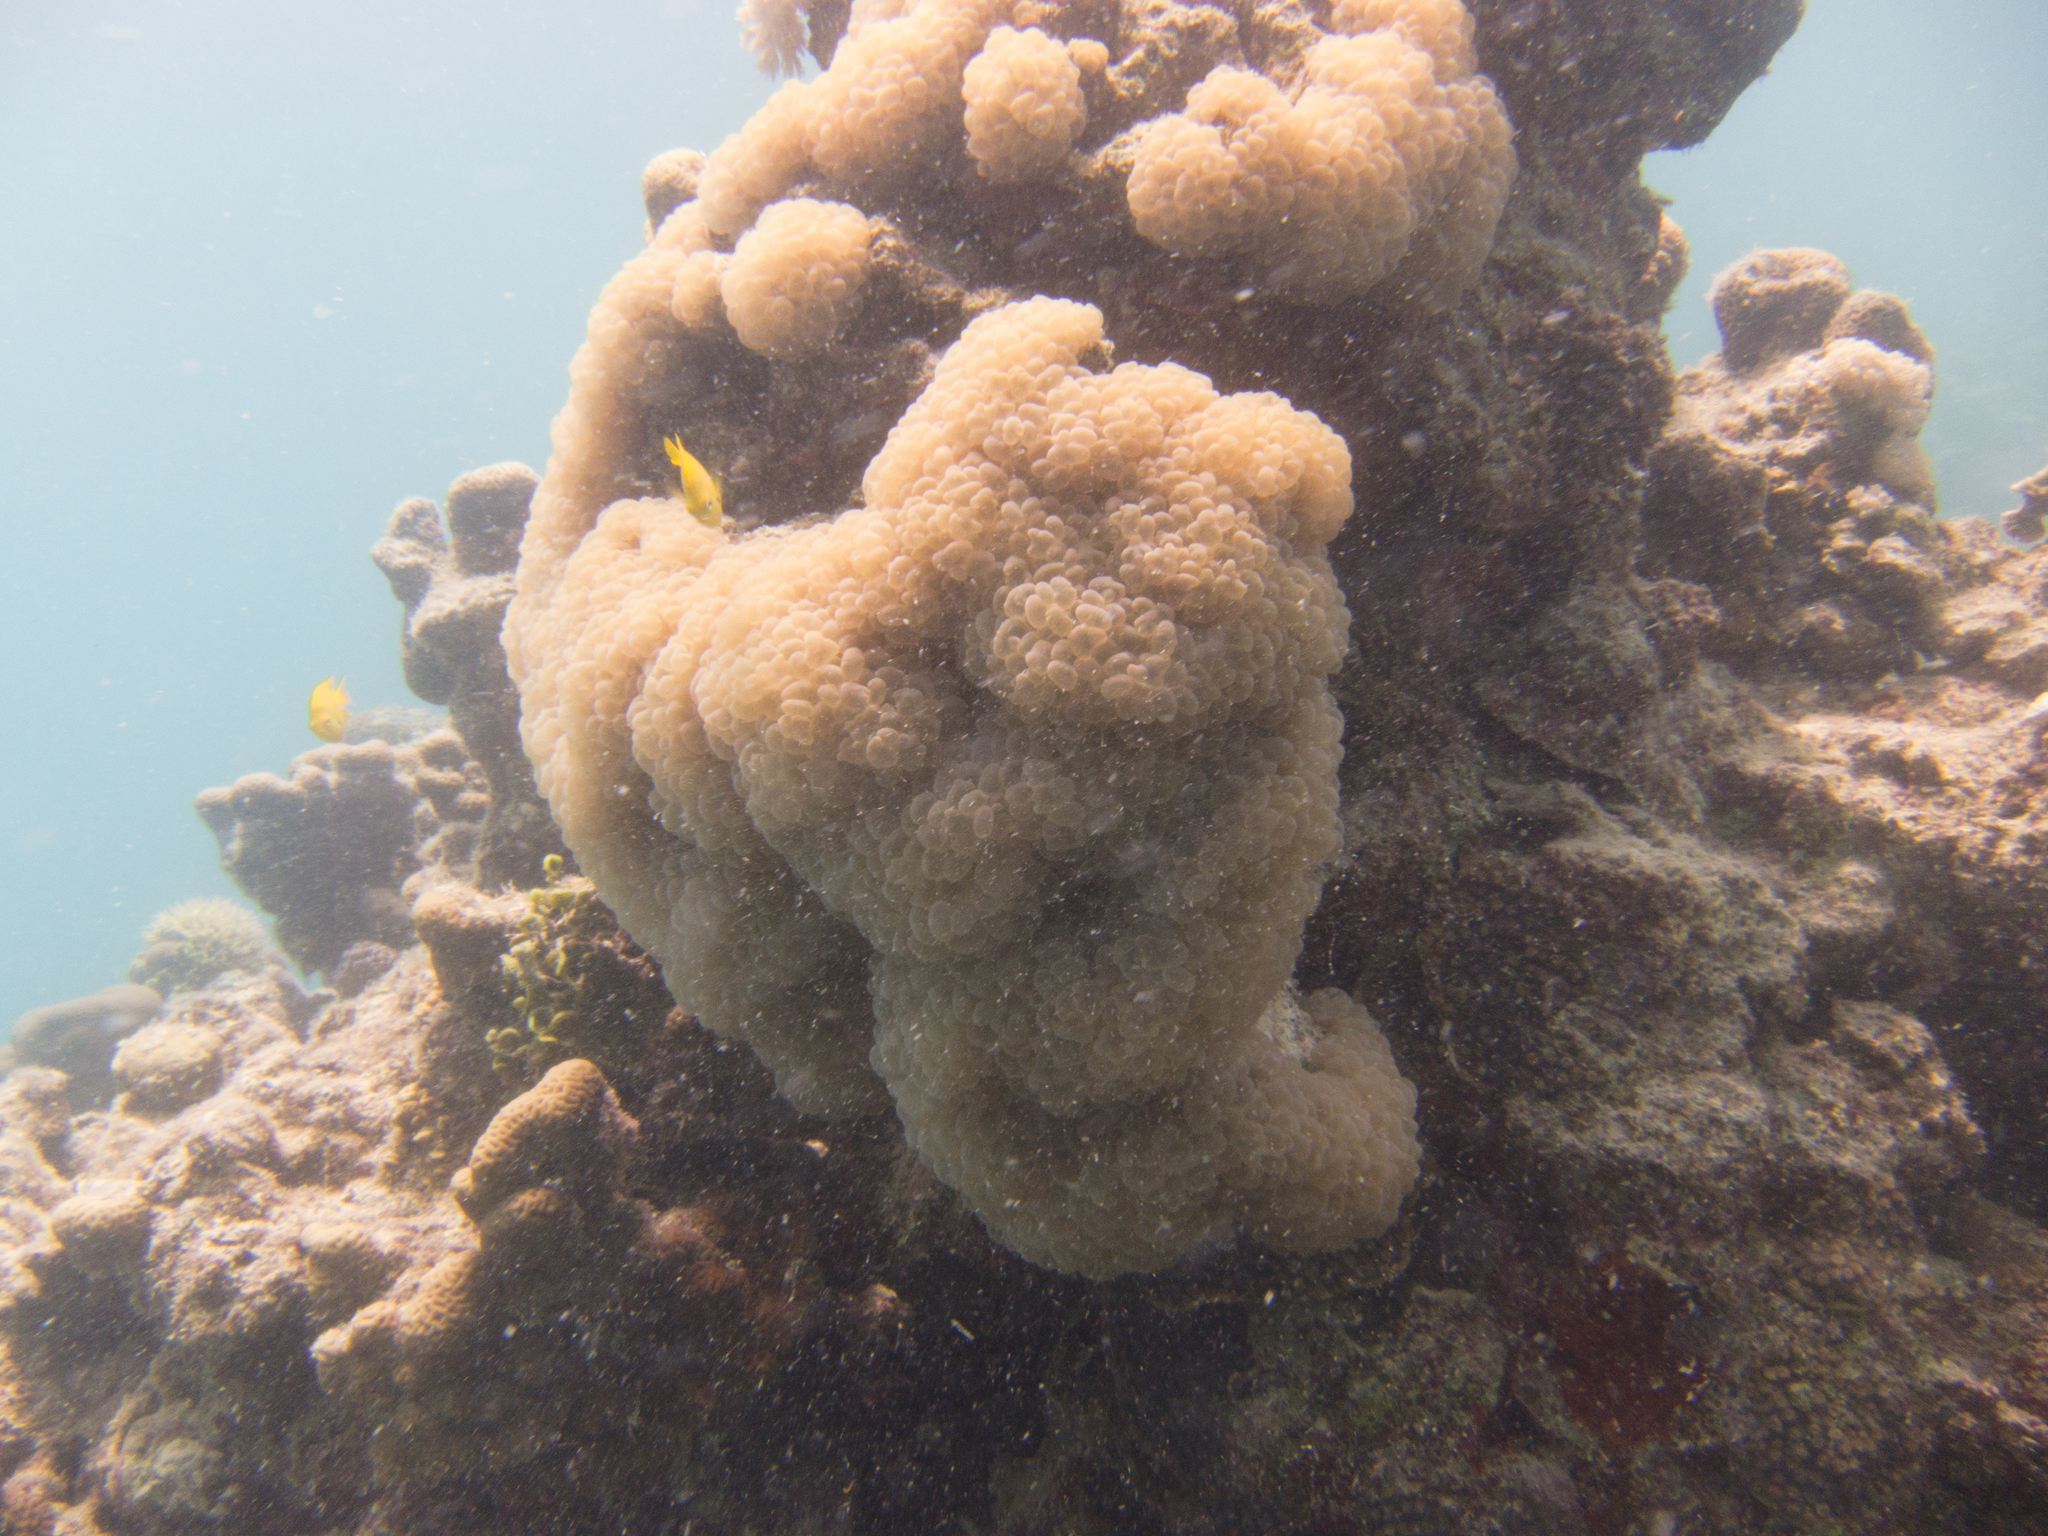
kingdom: Animalia
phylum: Cnidaria
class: Anthozoa
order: Scleractinia
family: Plerogyridae
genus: Plerogyra
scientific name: Plerogyra sinuosa
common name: Bubble coral
